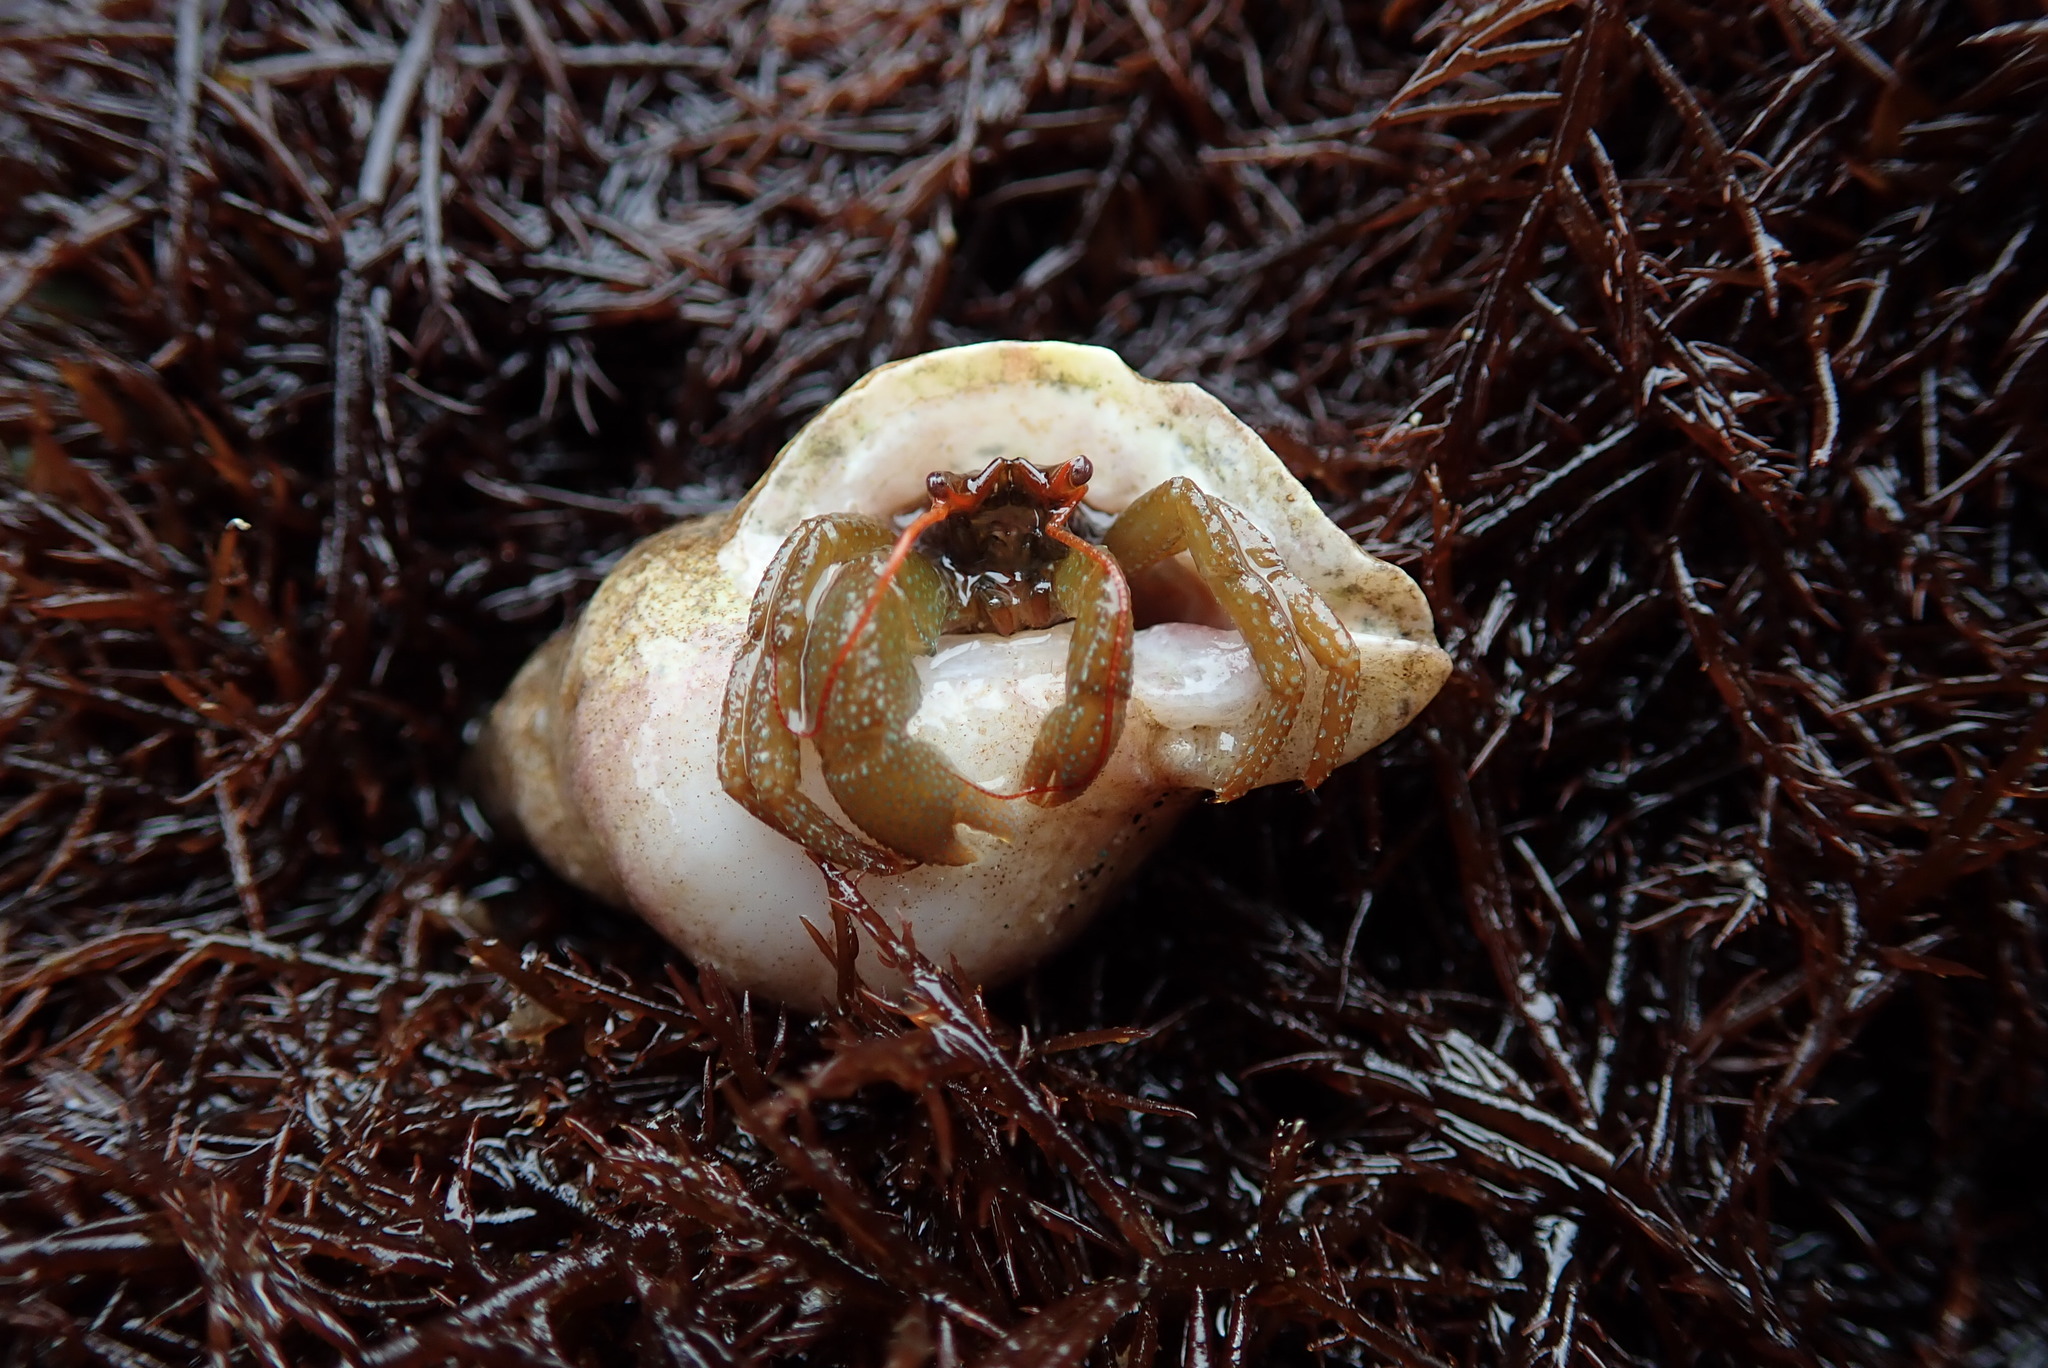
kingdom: Animalia
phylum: Arthropoda
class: Malacostraca
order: Decapoda
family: Paguridae
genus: Pagurus
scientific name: Pagurus granosimanus
